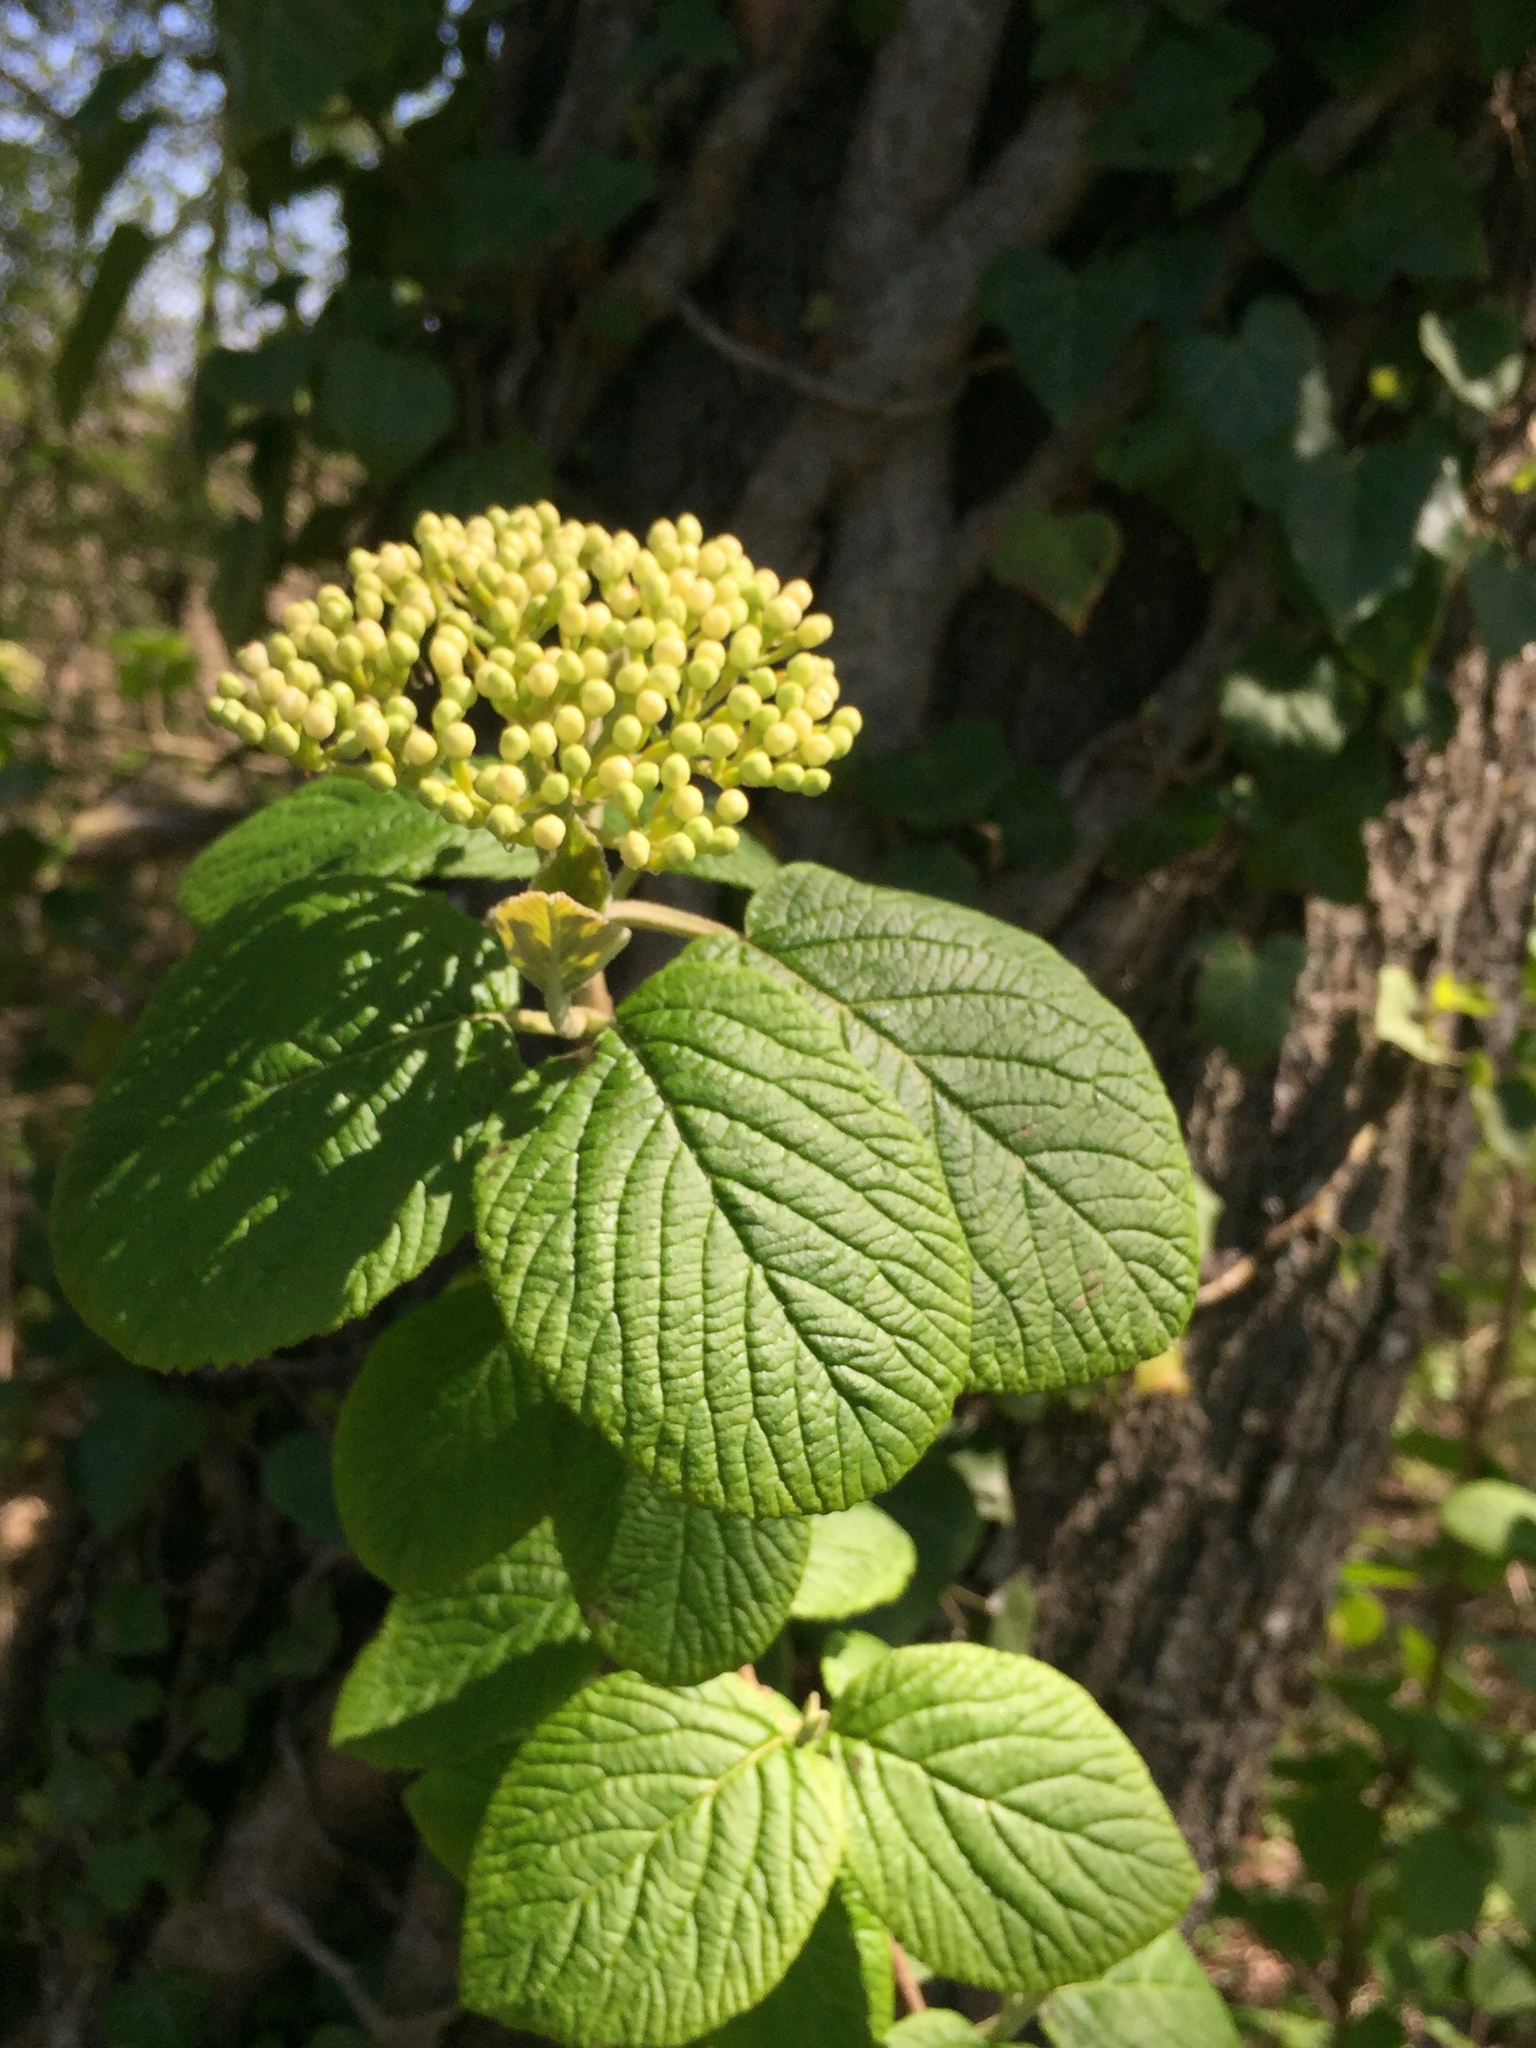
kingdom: Plantae
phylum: Tracheophyta
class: Magnoliopsida
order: Dipsacales
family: Viburnaceae
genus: Viburnum
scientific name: Viburnum lantana
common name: Wayfaring tree
